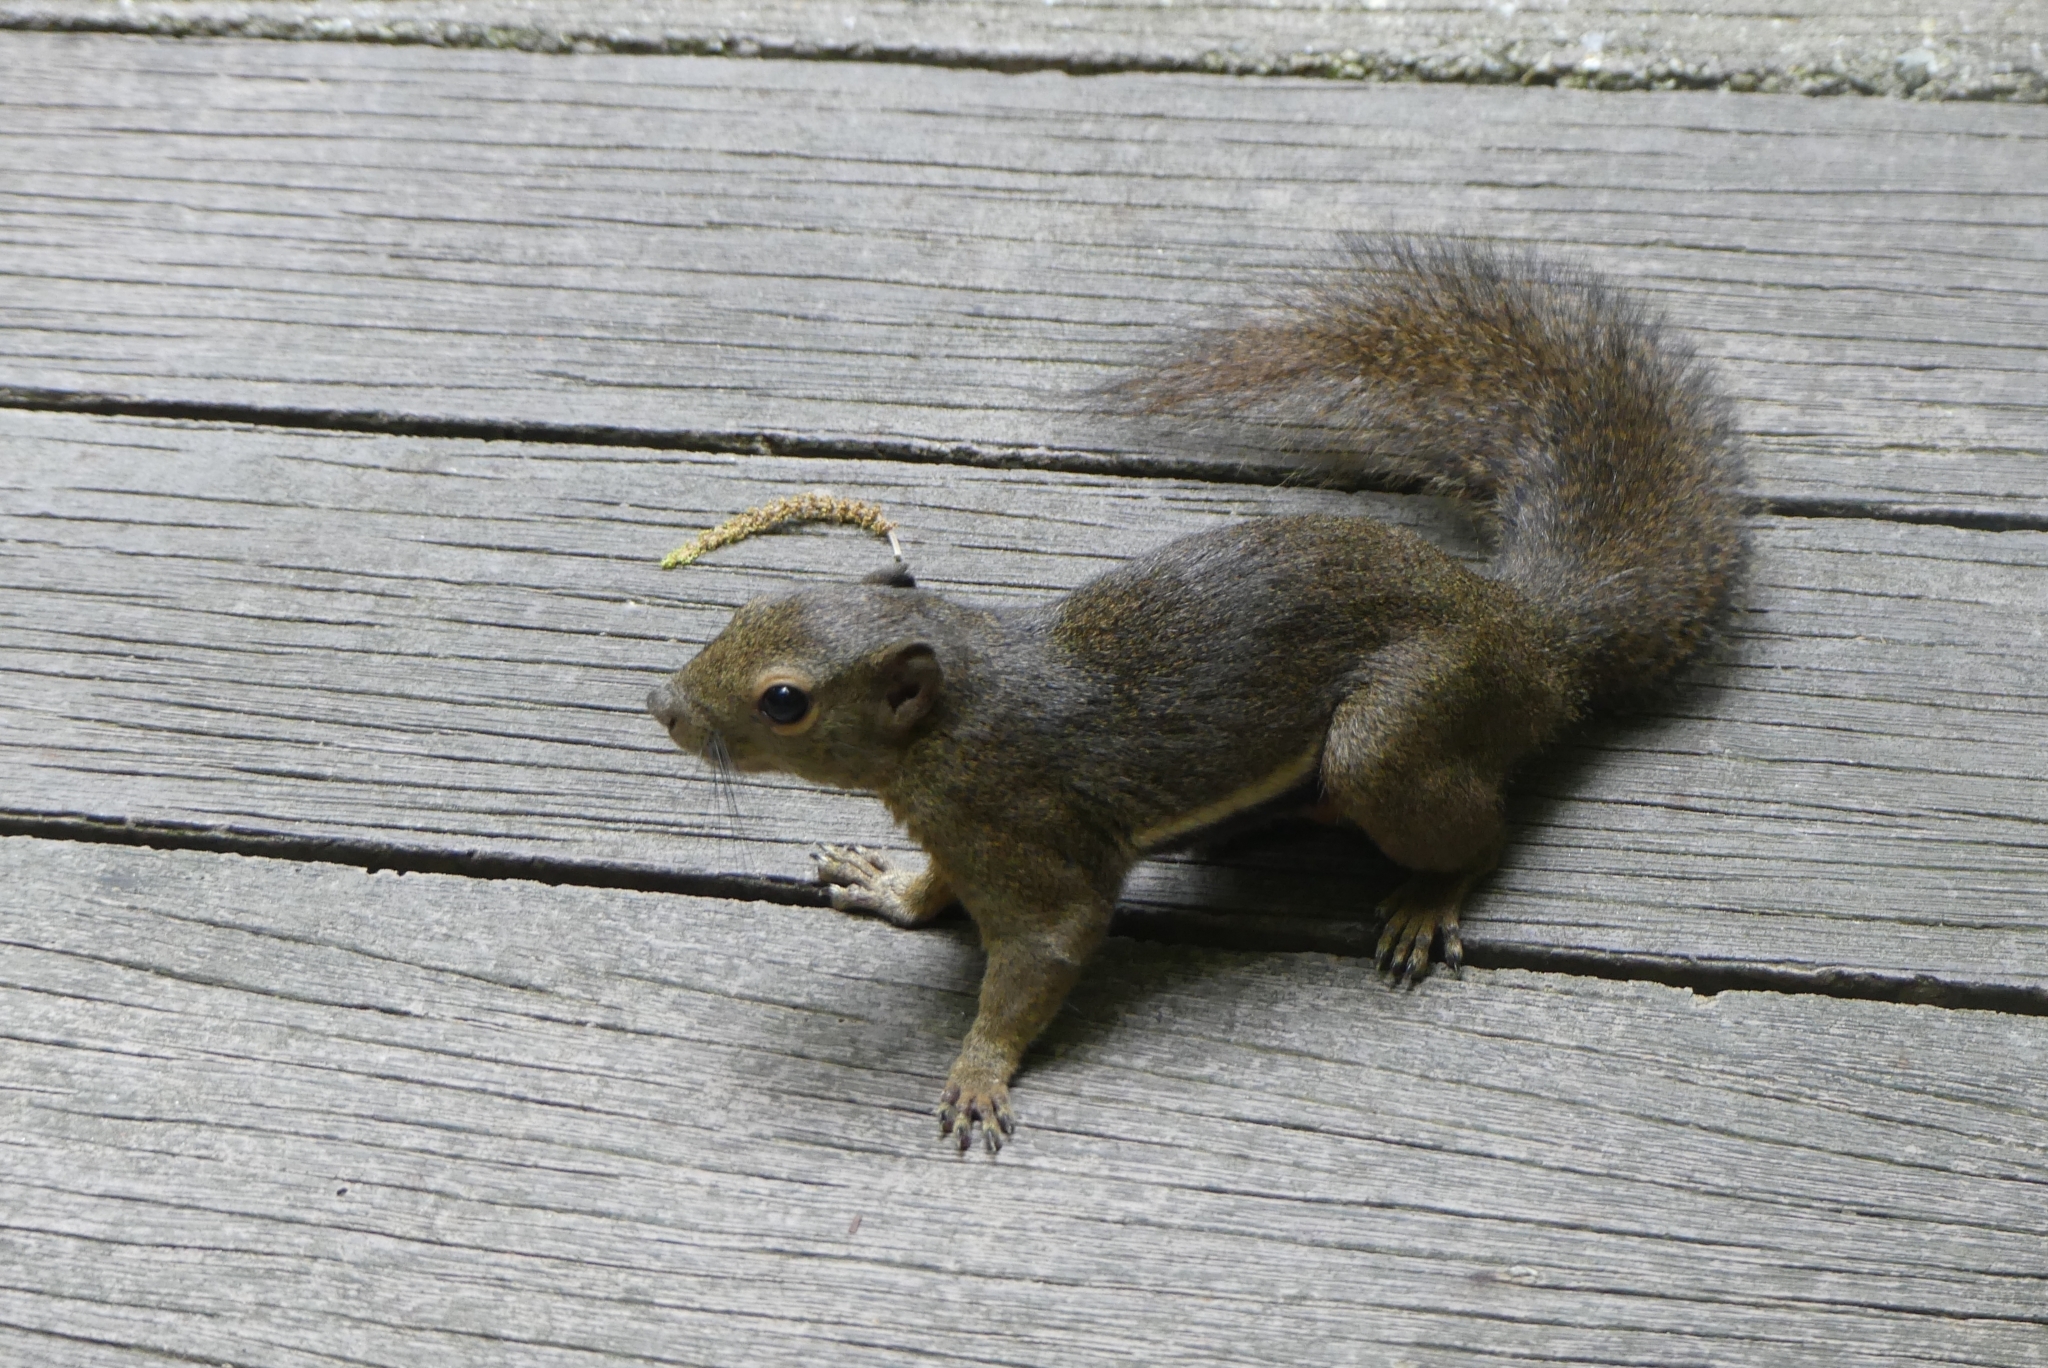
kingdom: Animalia
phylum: Chordata
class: Mammalia
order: Rodentia
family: Sciuridae
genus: Callosciurus
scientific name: Callosciurus notatus
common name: Plantain squirrel
